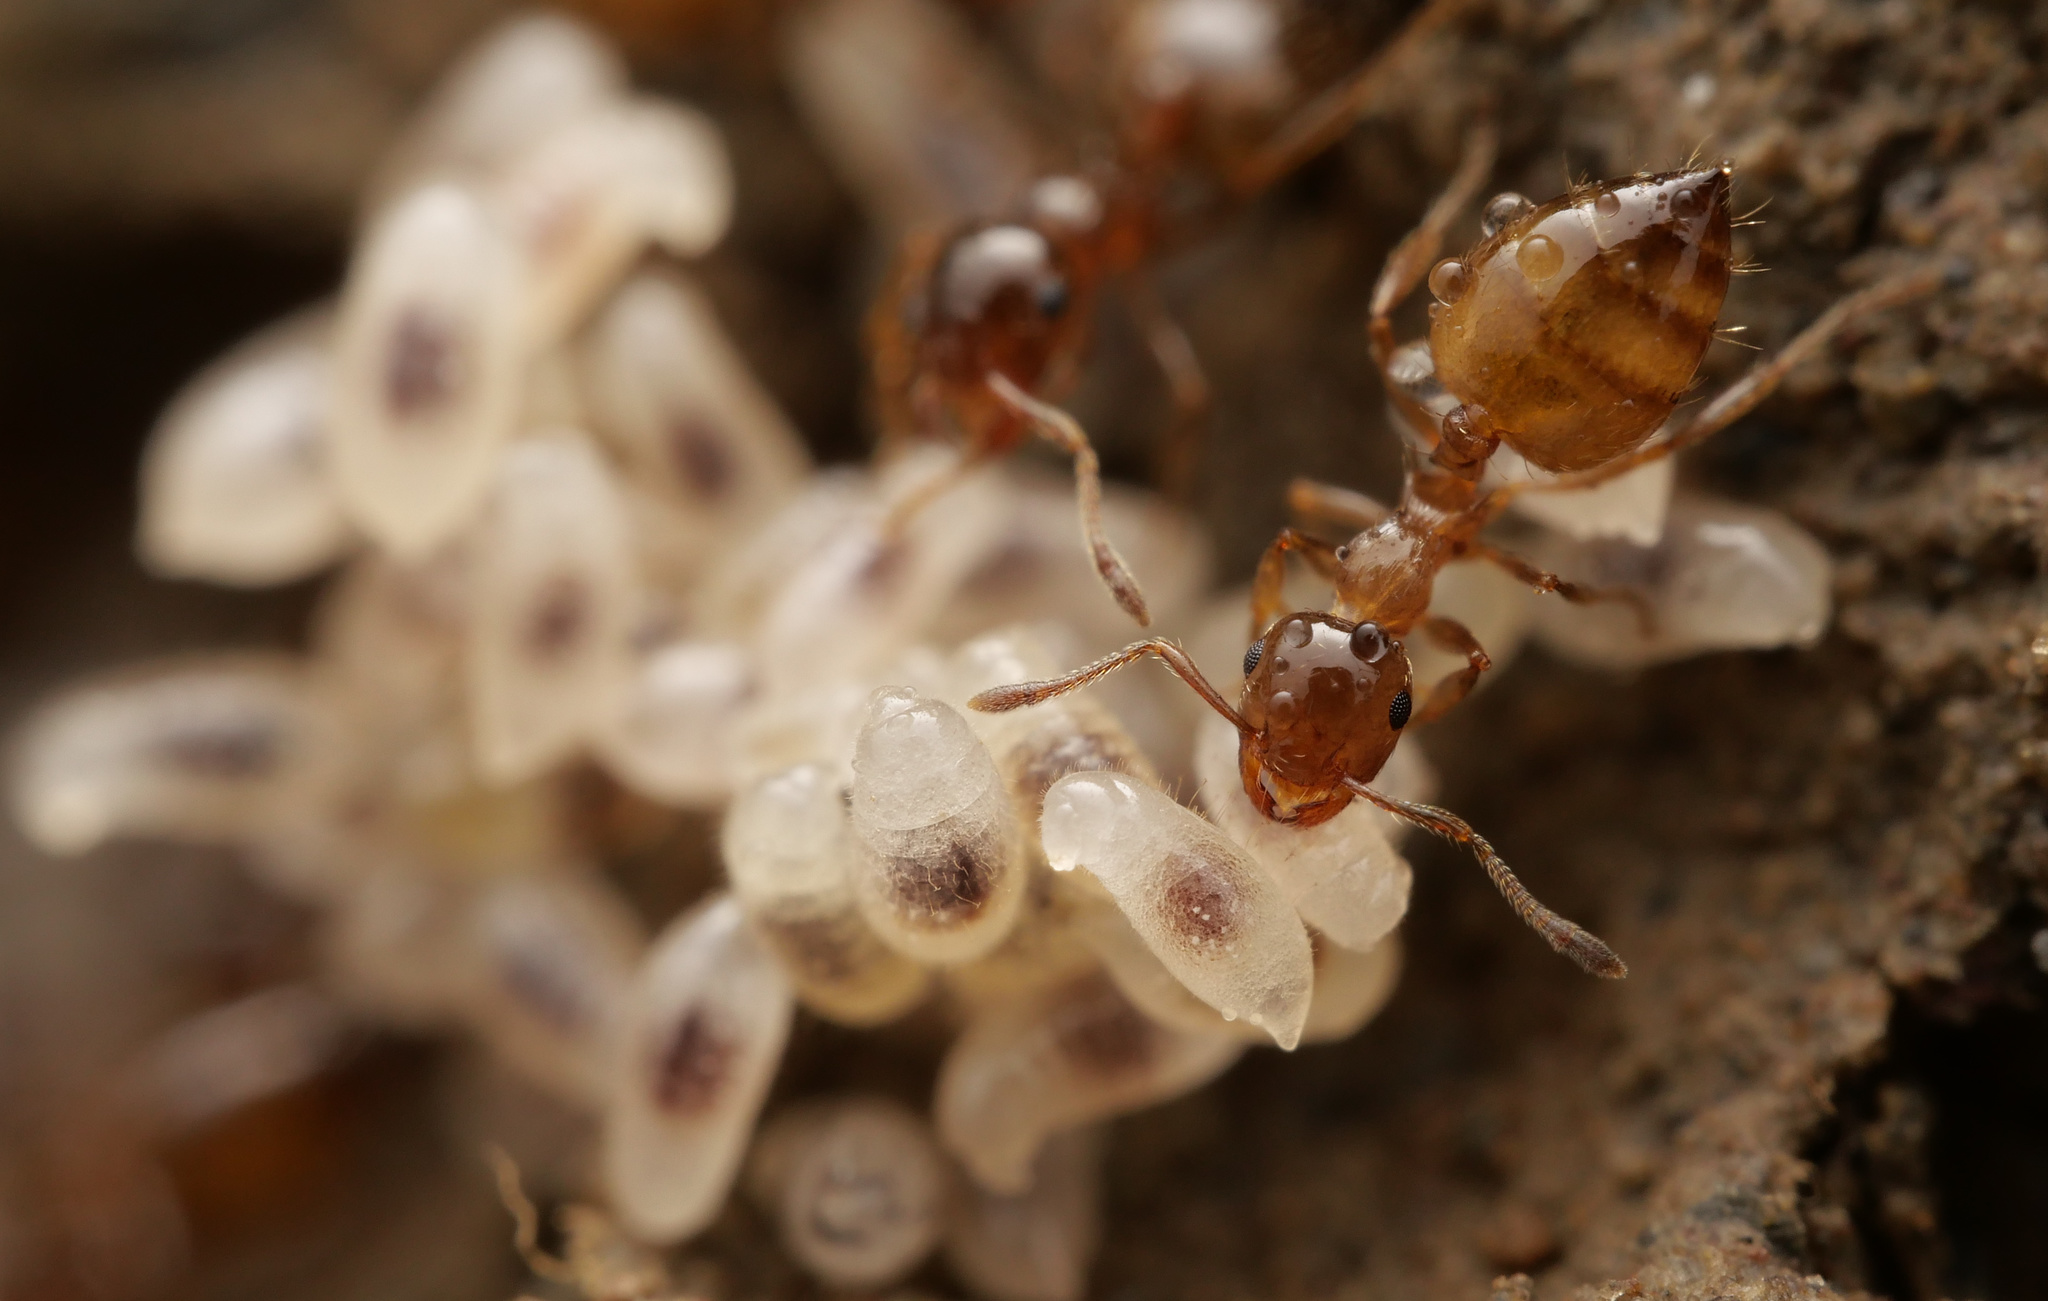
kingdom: Animalia
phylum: Arthropoda
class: Insecta
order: Hymenoptera
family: Formicidae
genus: Crematogaster
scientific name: Crematogaster sordidula
